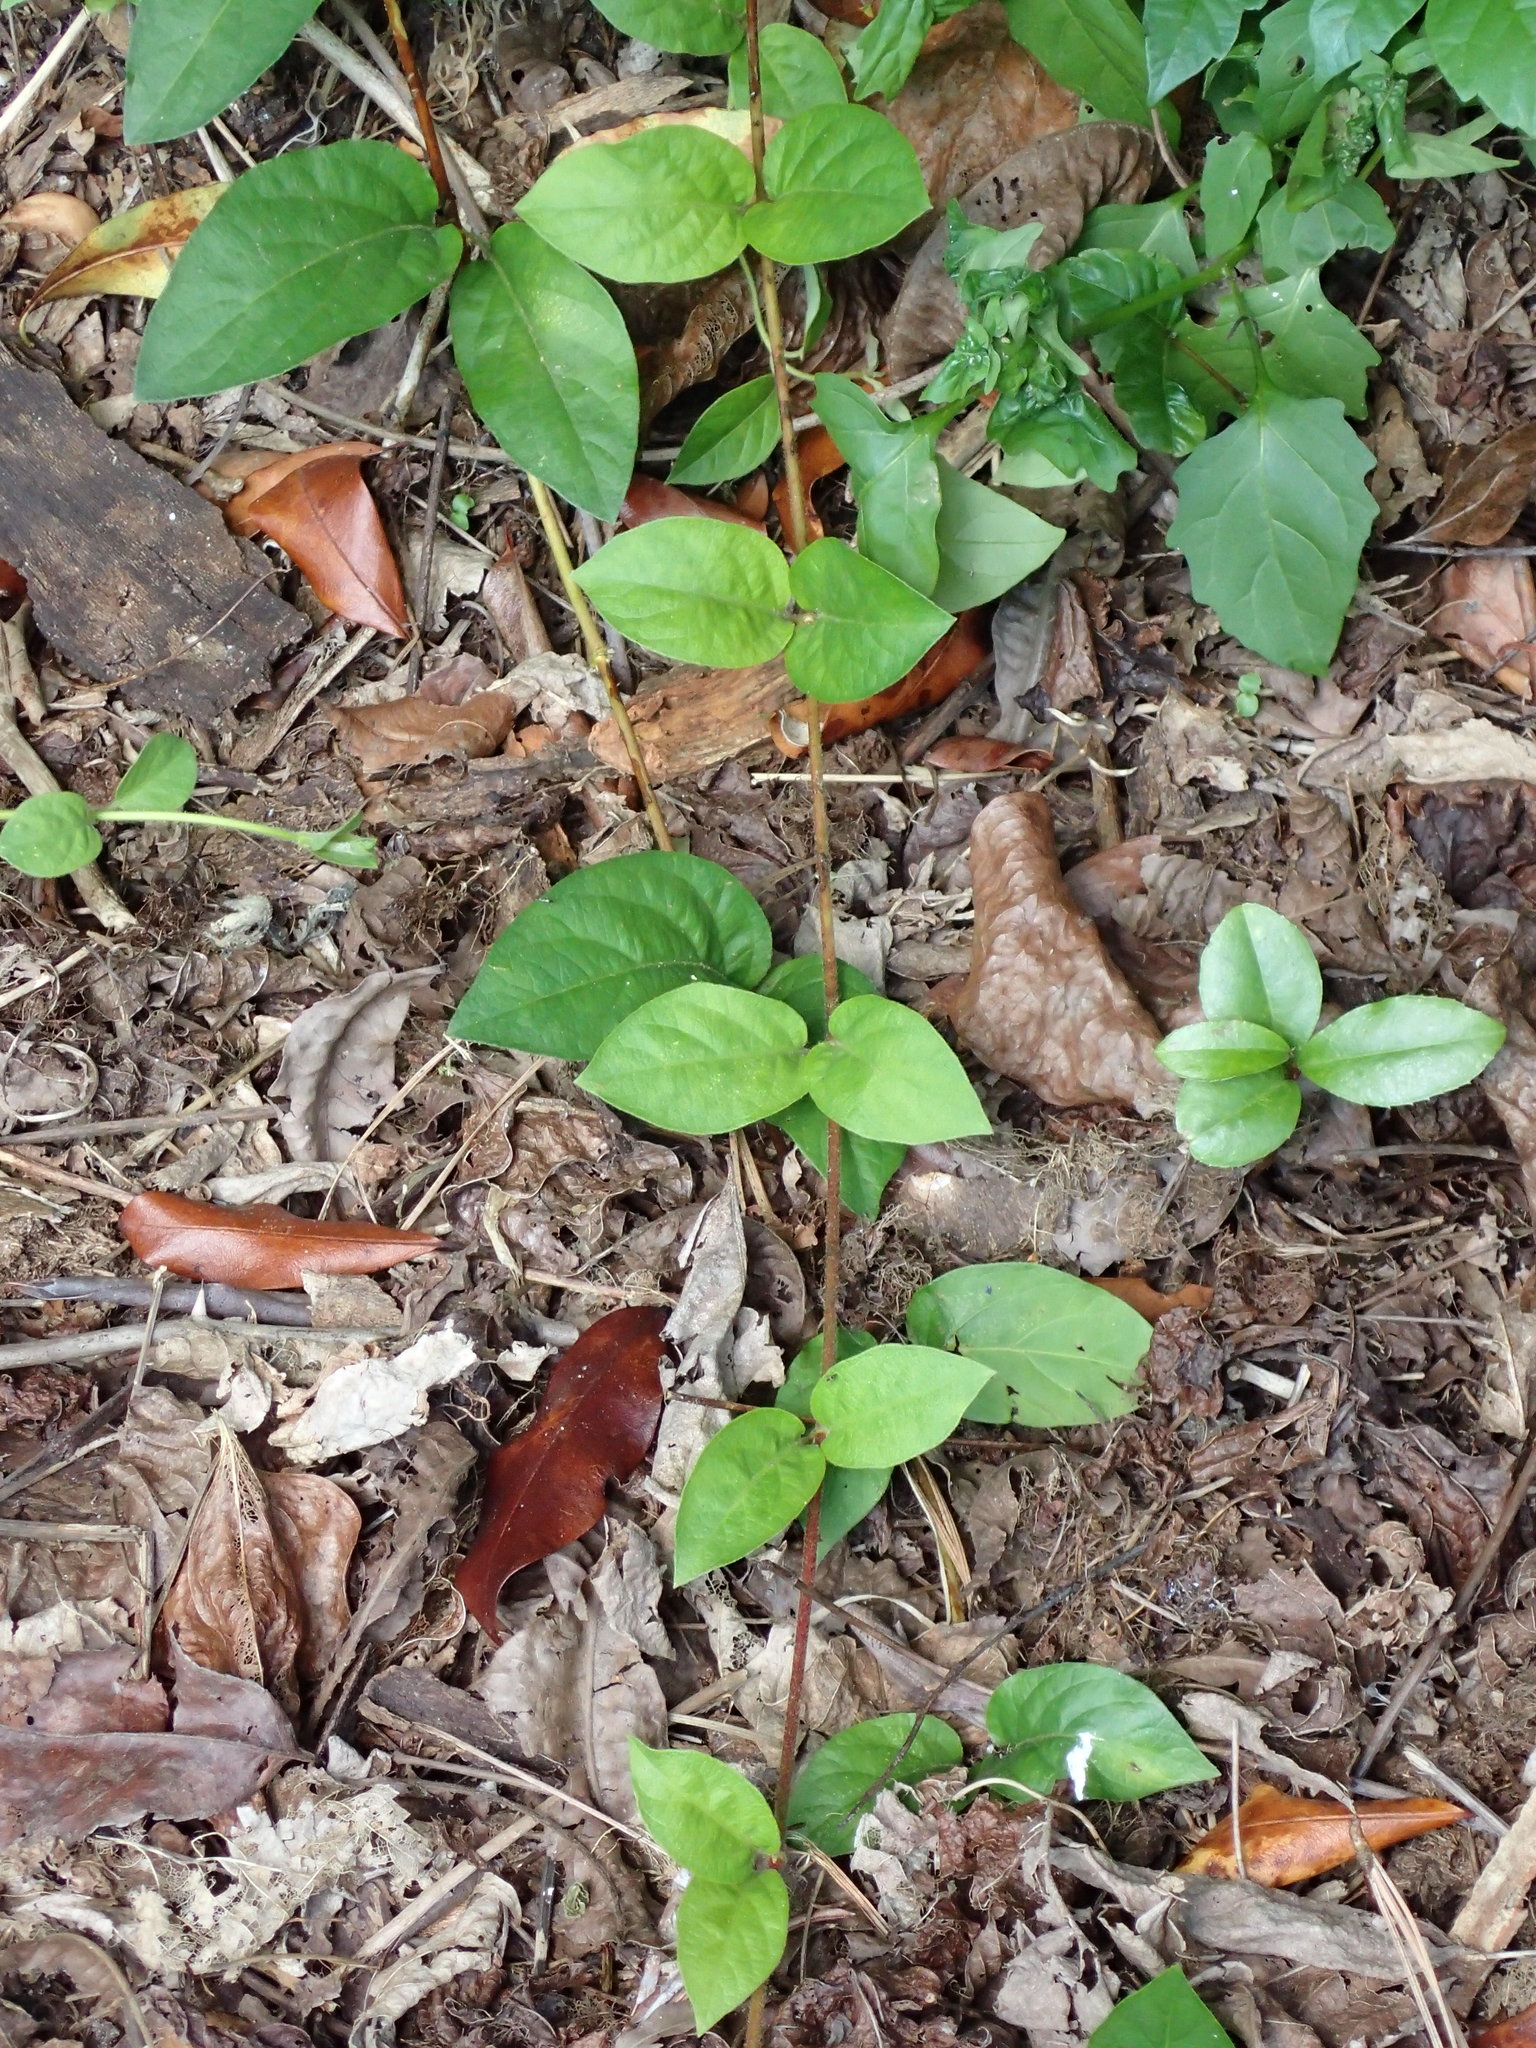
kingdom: Plantae
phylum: Tracheophyta
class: Magnoliopsida
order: Dipsacales
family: Caprifoliaceae
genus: Lonicera
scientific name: Lonicera japonica
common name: Japanese honeysuckle
